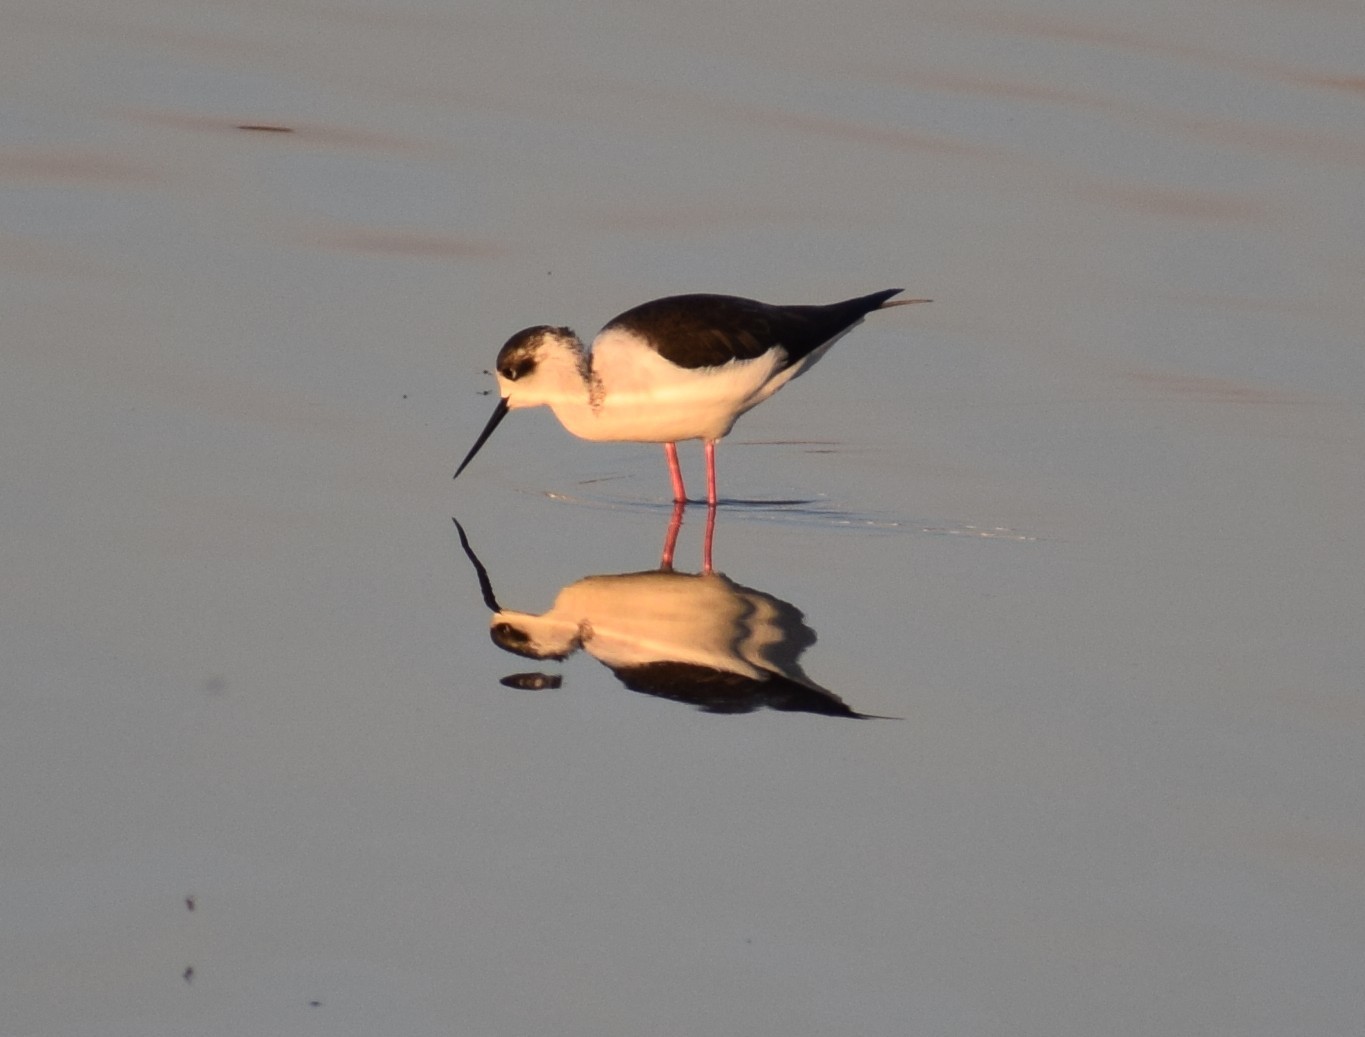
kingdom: Animalia
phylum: Chordata
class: Aves
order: Charadriiformes
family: Recurvirostridae
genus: Himantopus
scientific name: Himantopus himantopus
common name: Black-winged stilt
